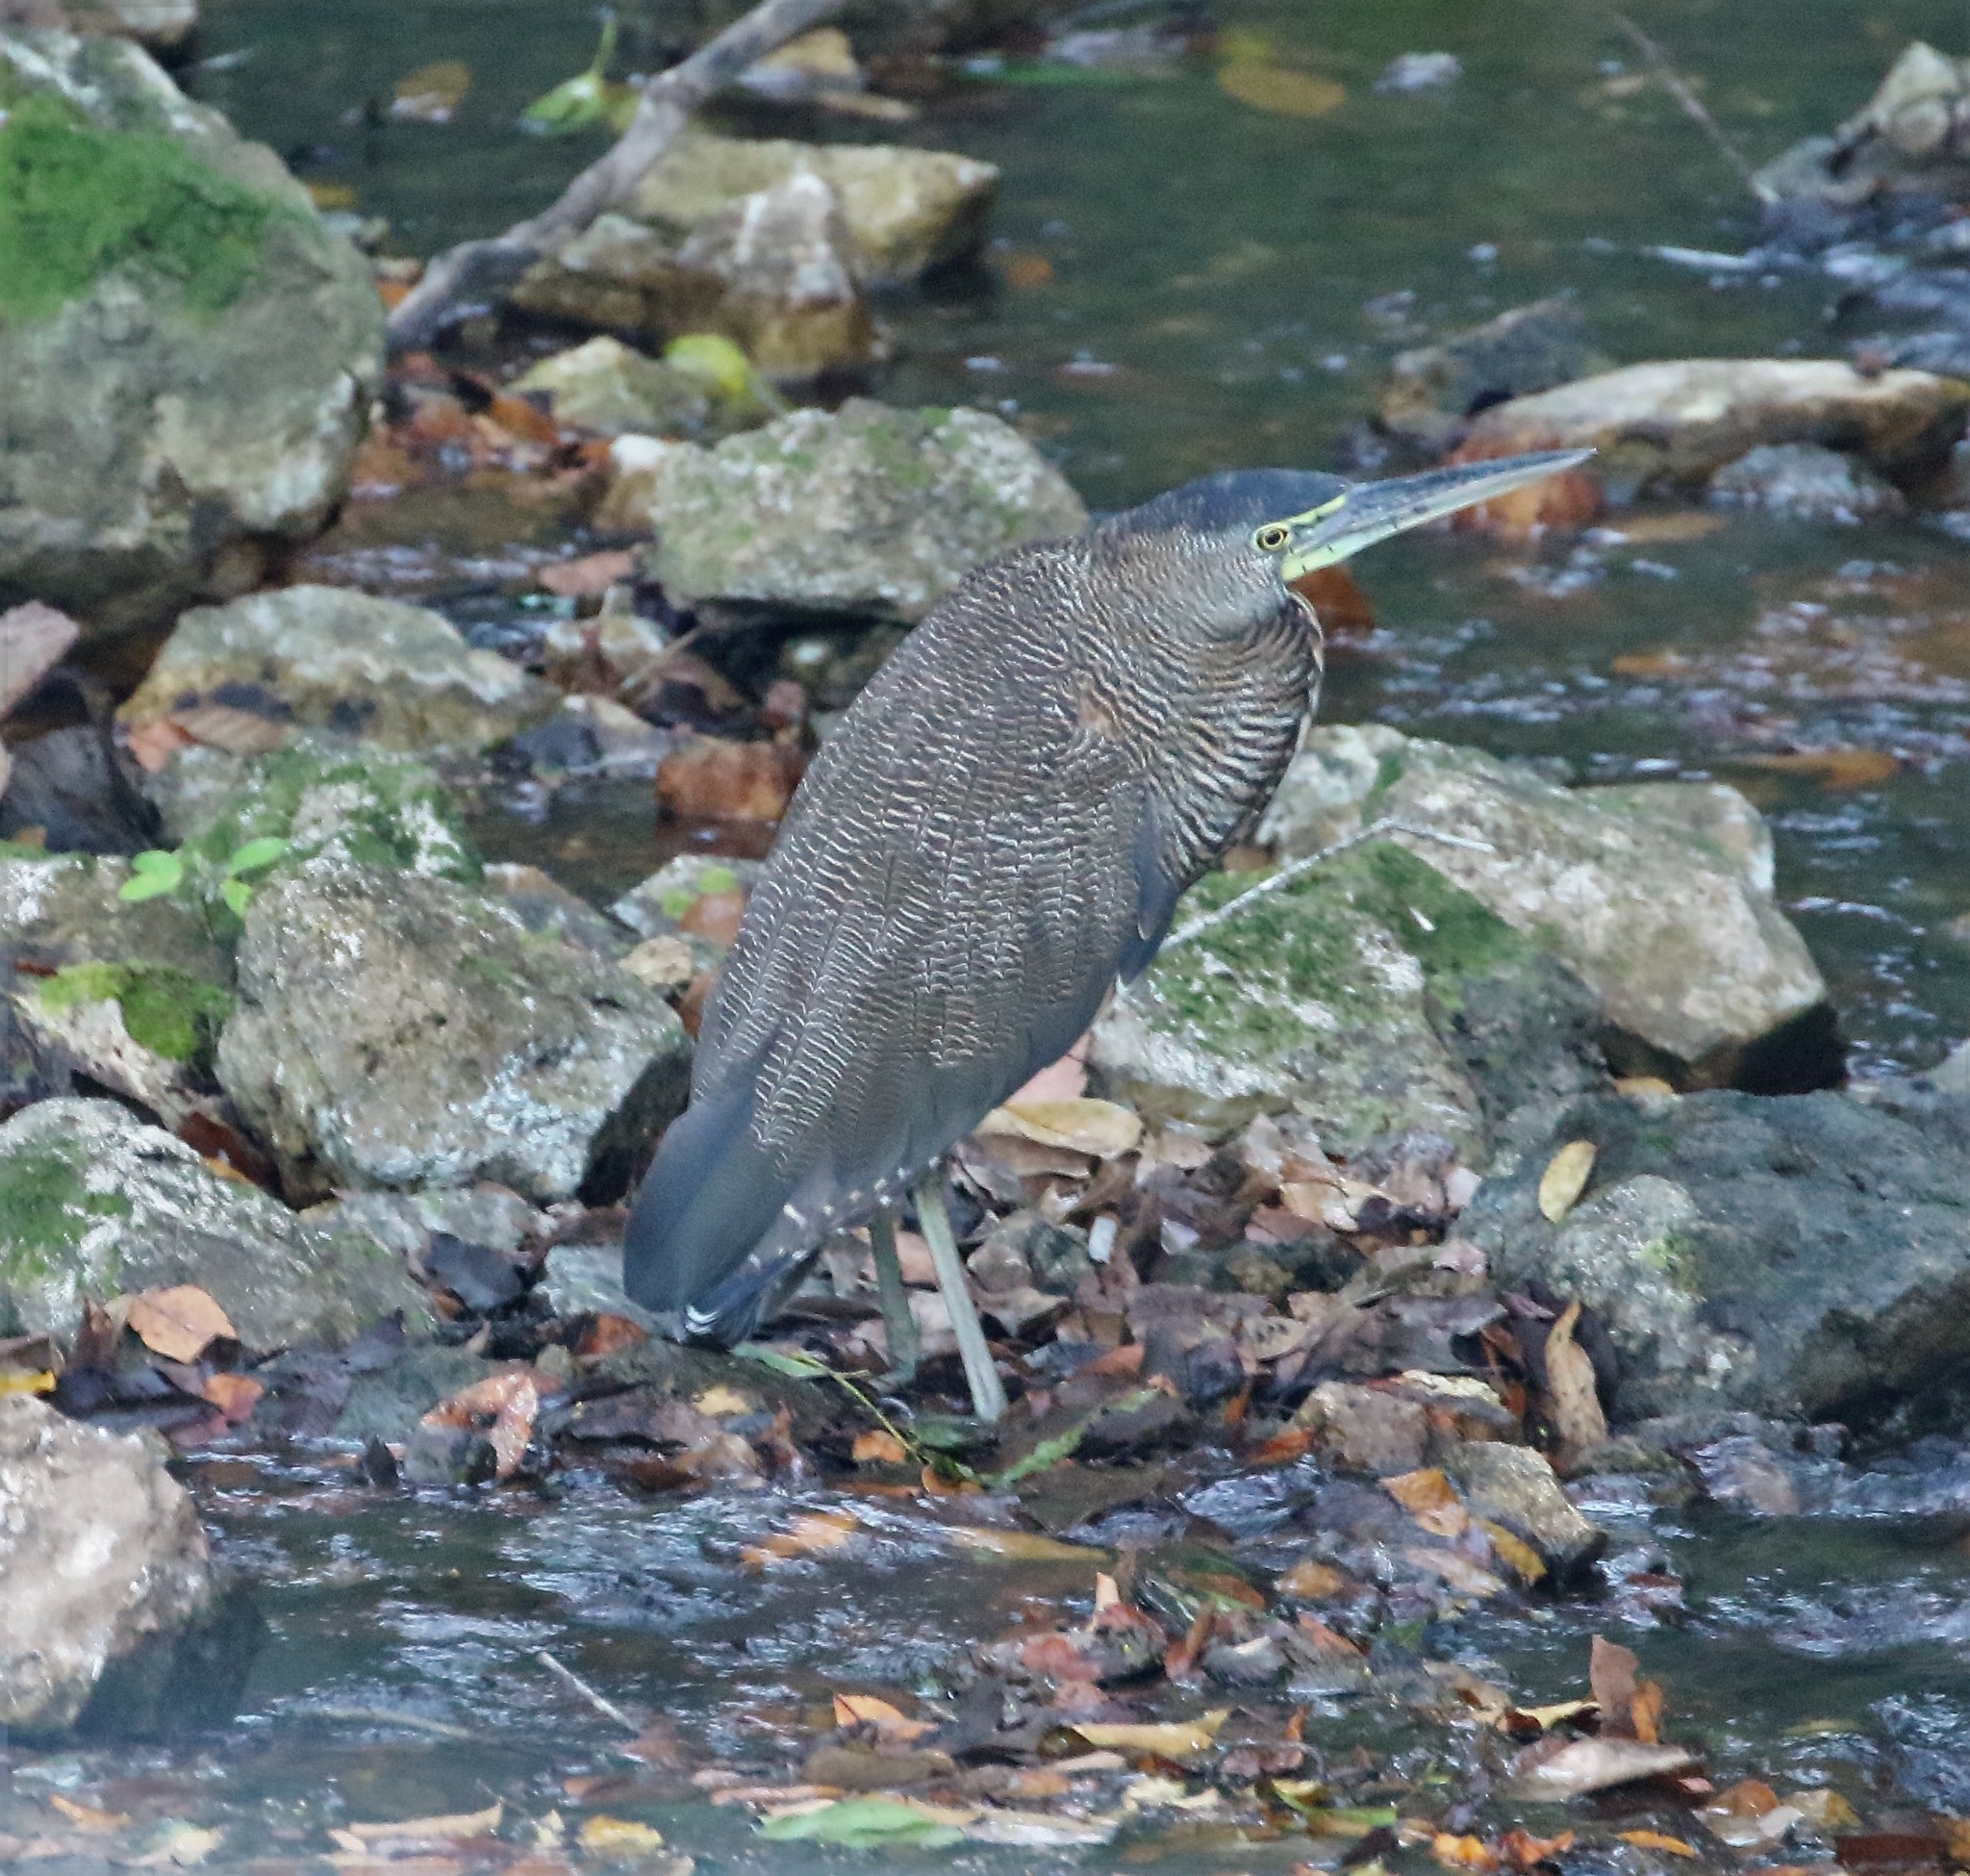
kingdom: Animalia
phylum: Chordata
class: Aves
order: Pelecaniformes
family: Ardeidae
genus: Tigrisoma
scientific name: Tigrisoma mexicanum
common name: Bare-throated tiger-heron
